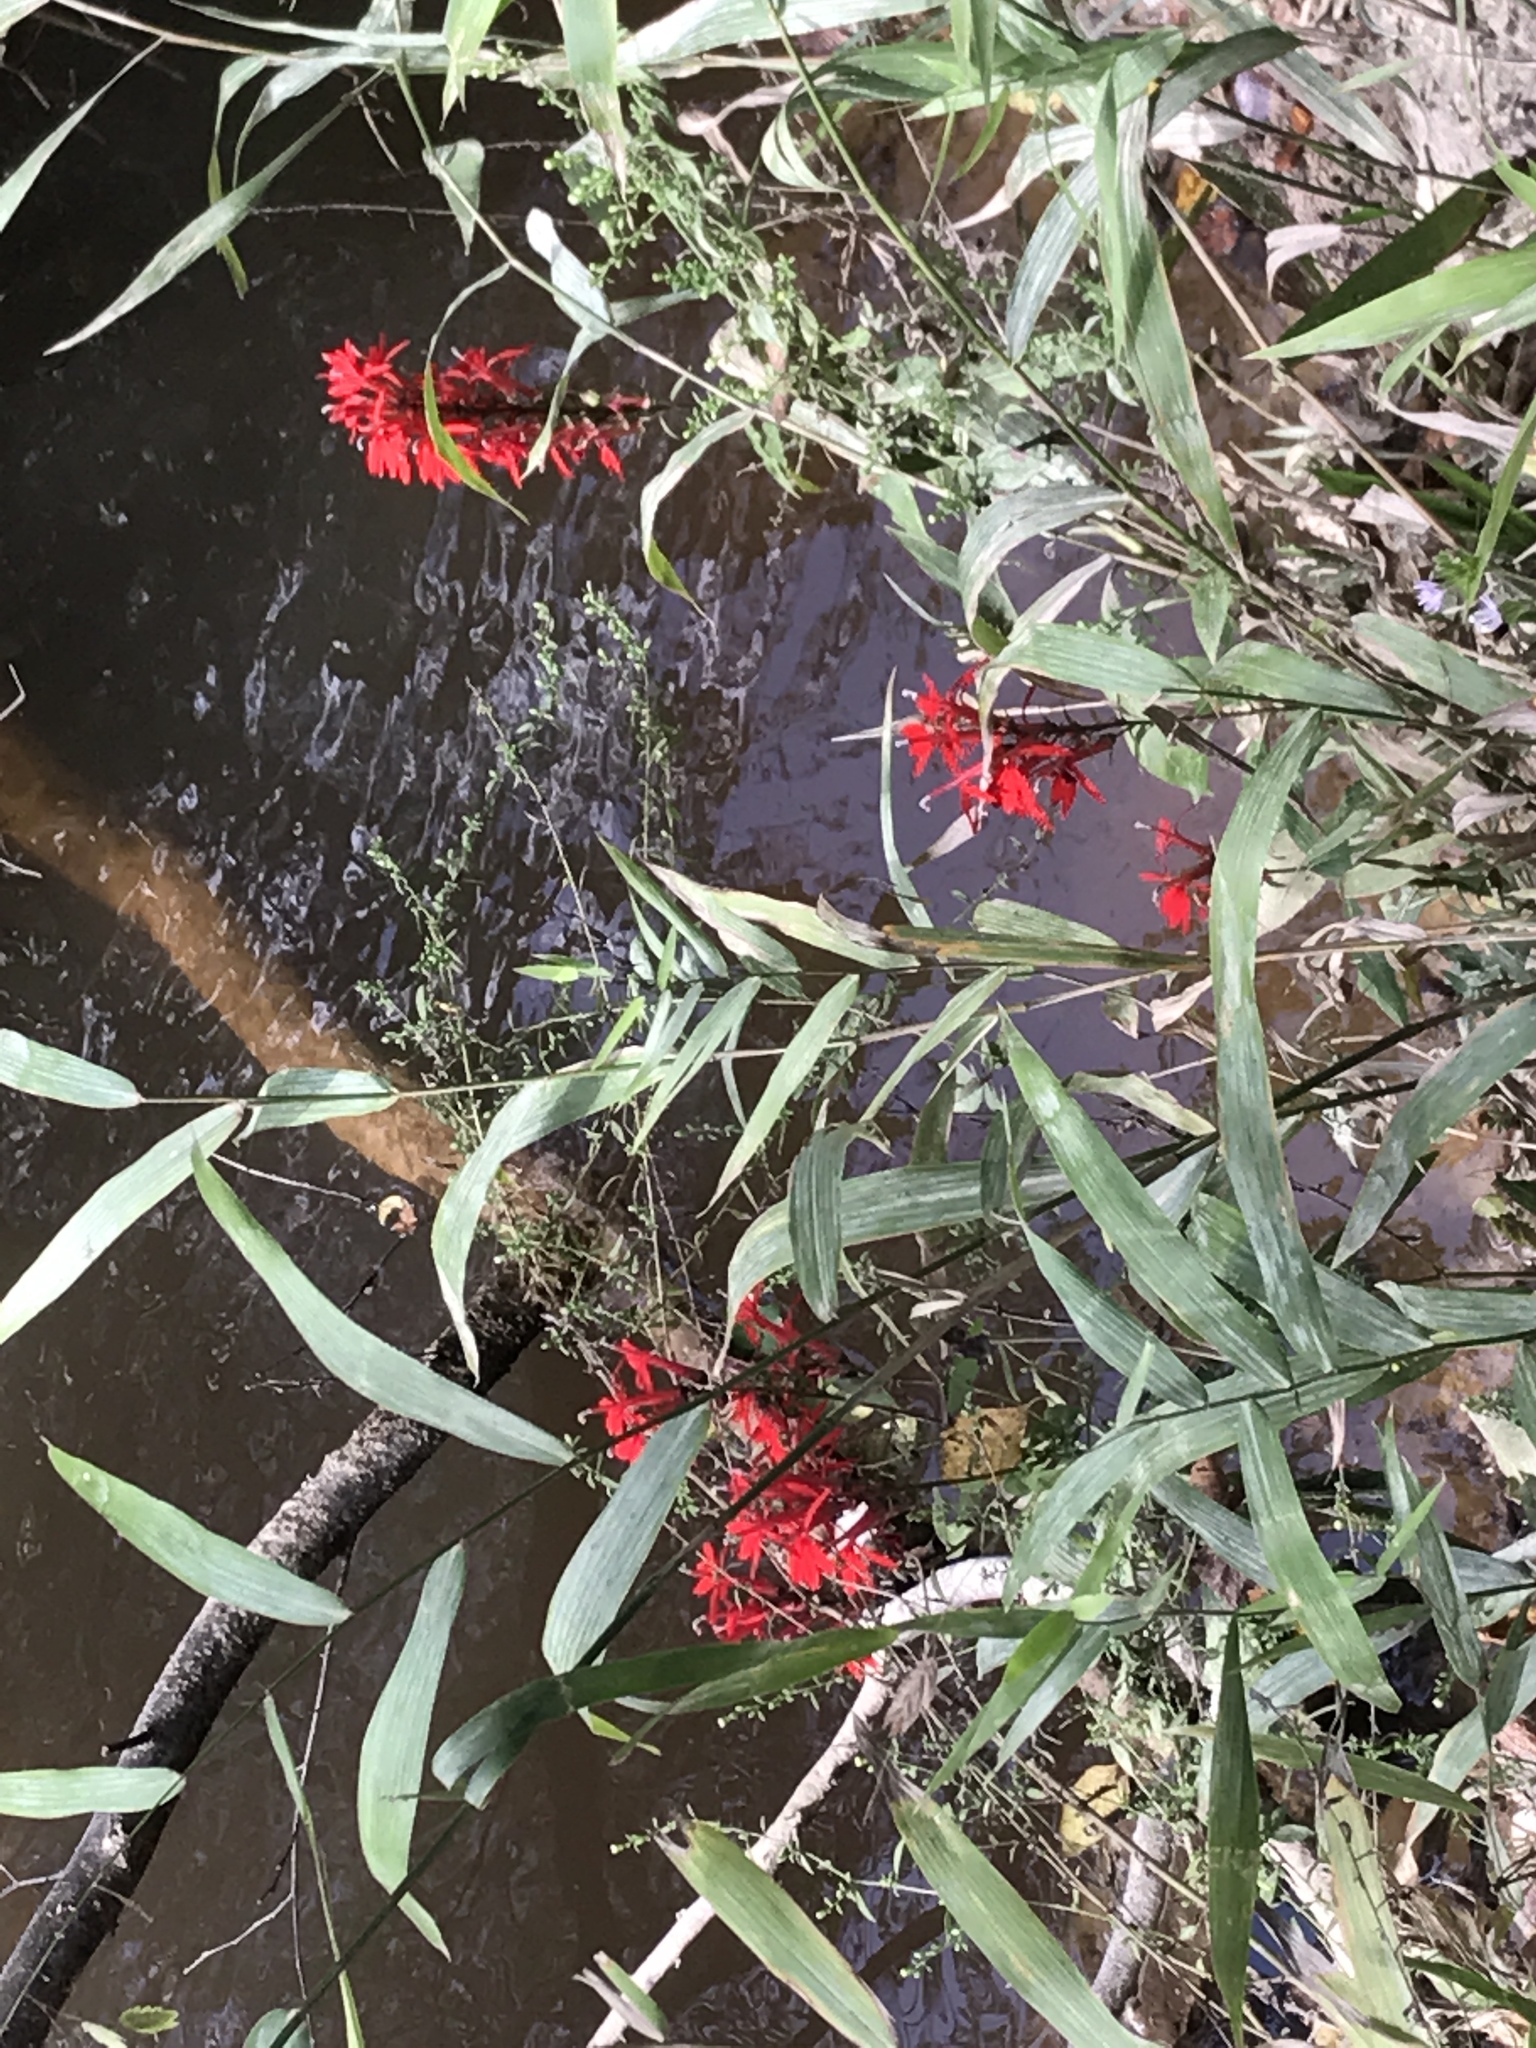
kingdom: Plantae
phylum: Tracheophyta
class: Magnoliopsida
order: Asterales
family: Campanulaceae
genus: Lobelia
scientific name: Lobelia cardinalis
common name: Cardinal flower
